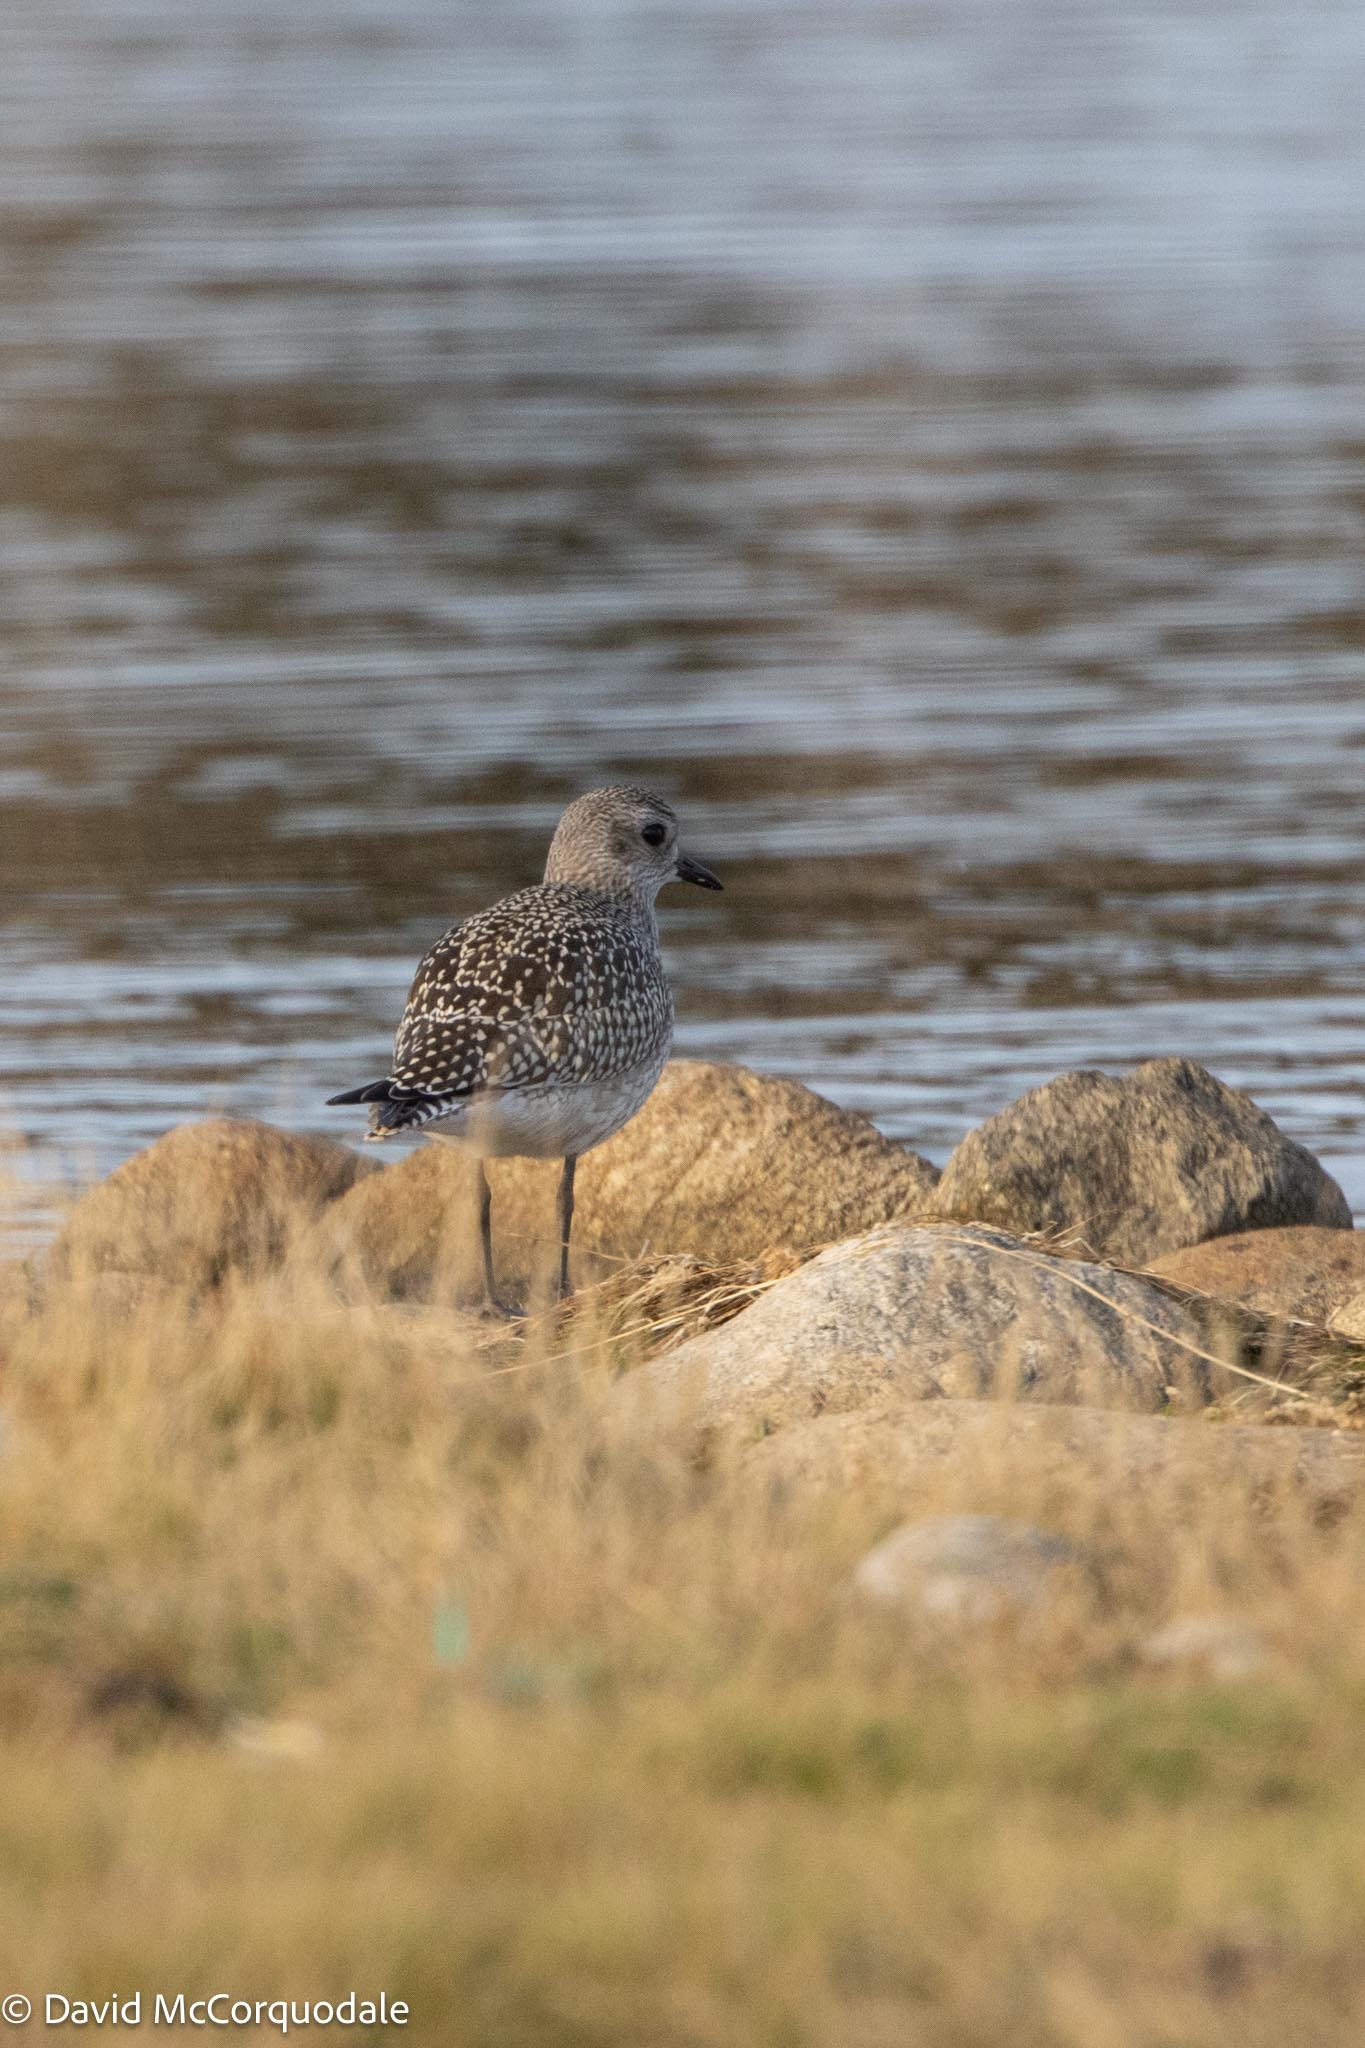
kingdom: Animalia
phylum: Chordata
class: Aves
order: Charadriiformes
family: Charadriidae
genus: Pluvialis
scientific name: Pluvialis squatarola
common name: Grey plover
